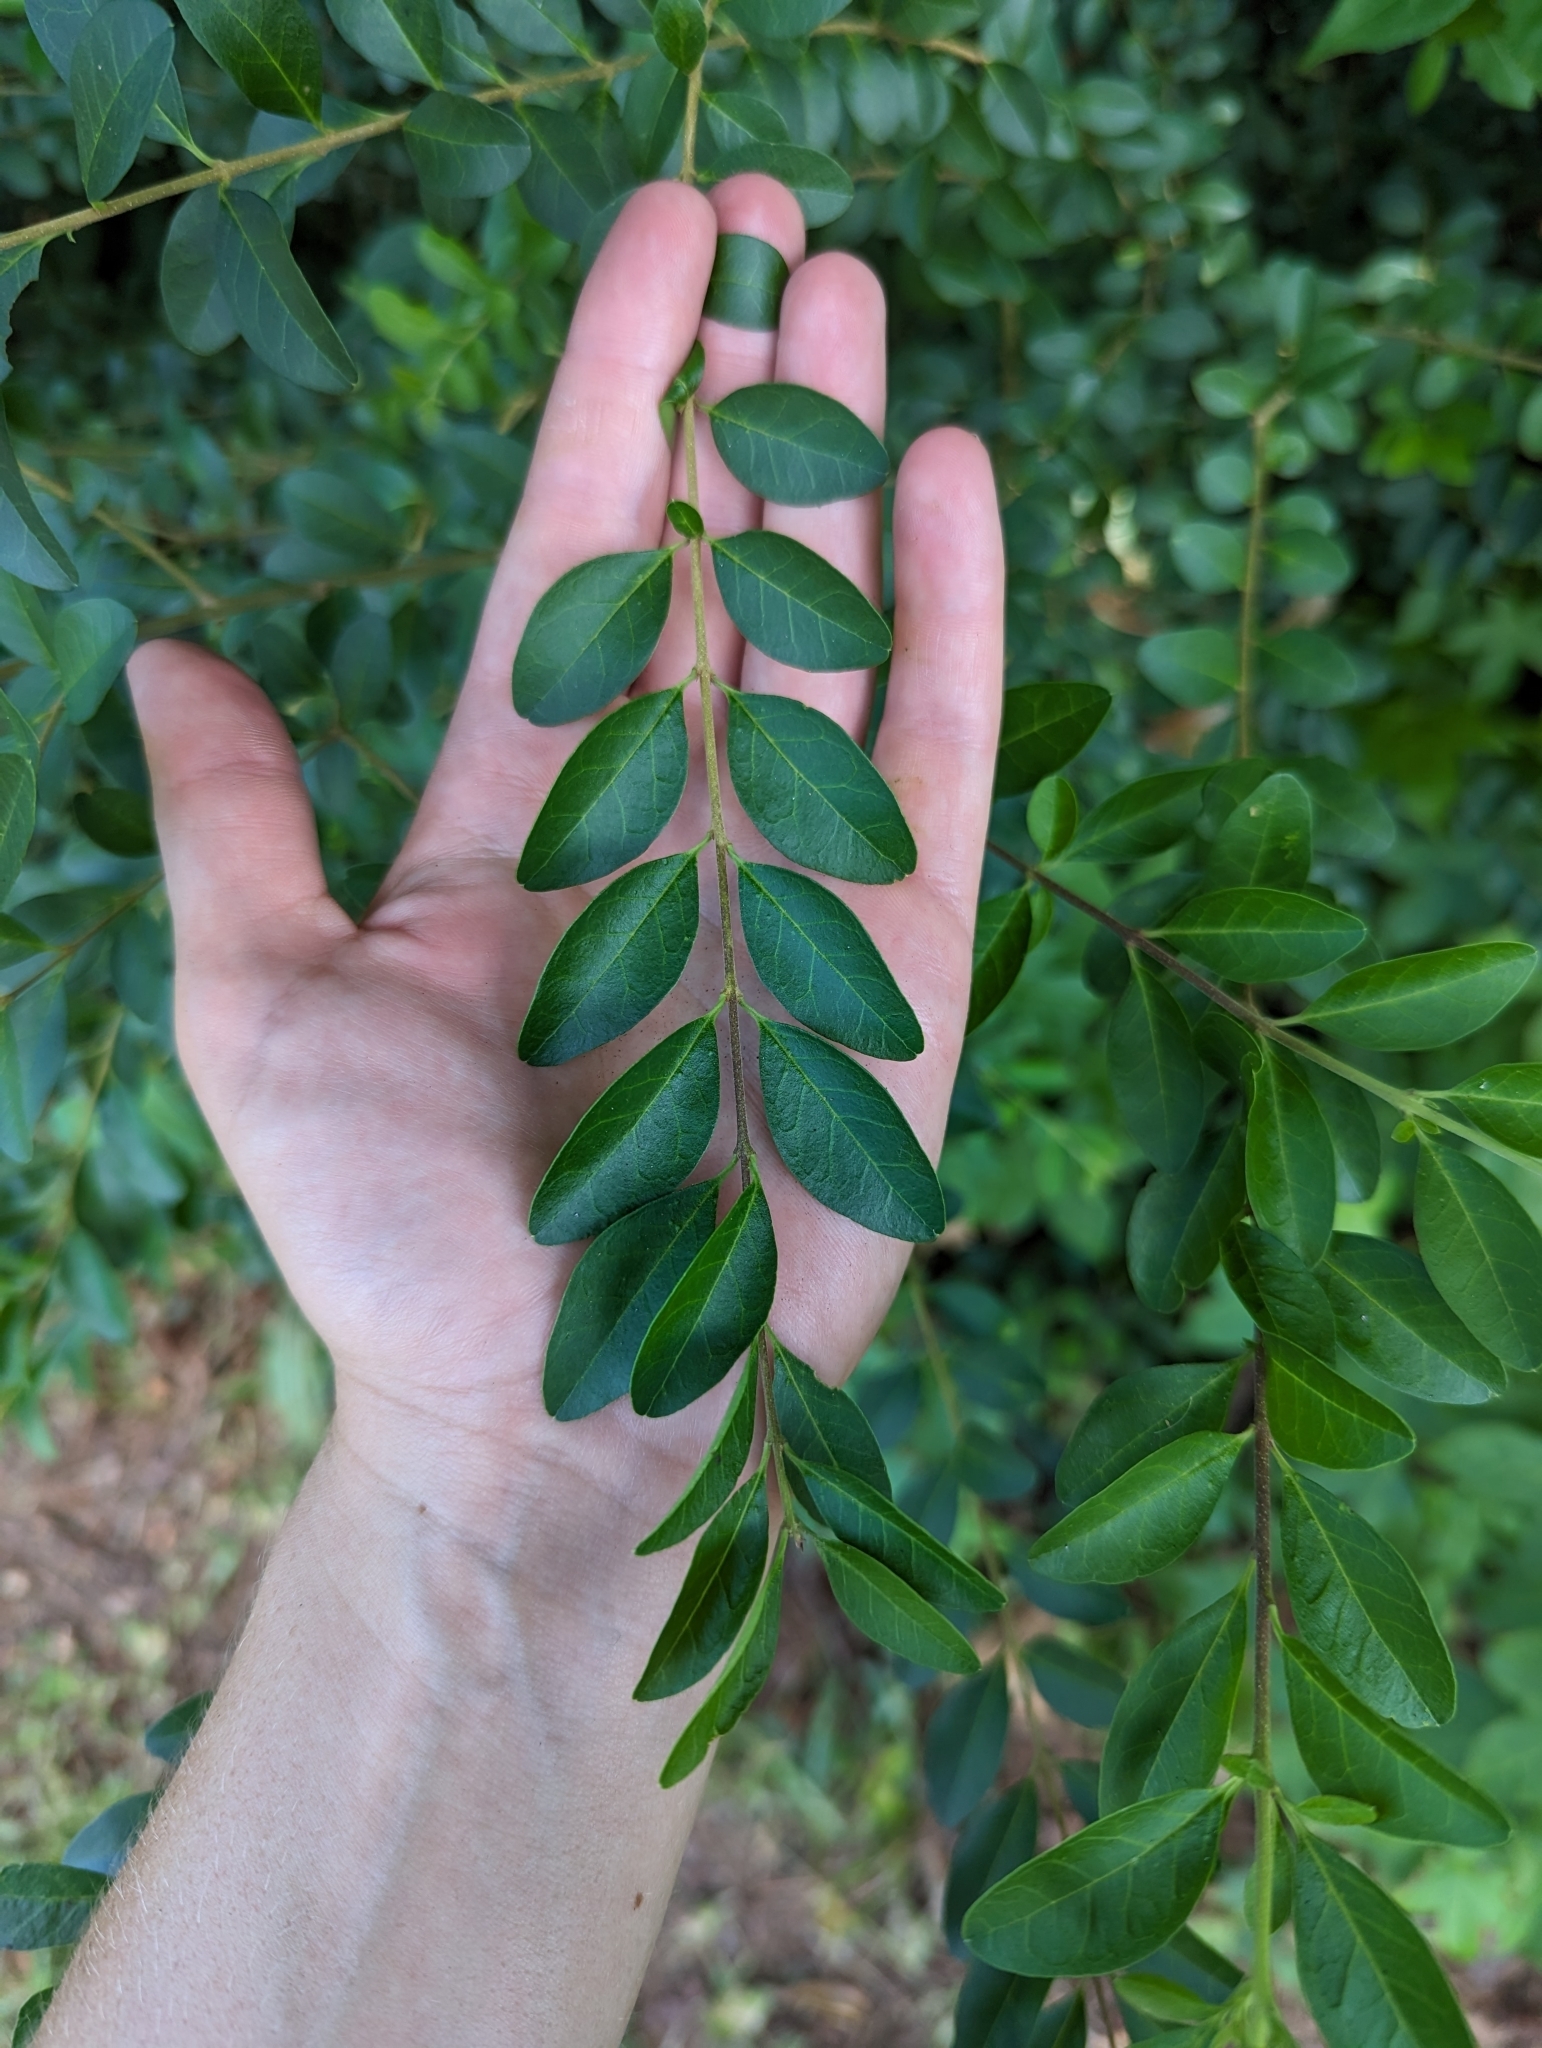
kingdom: Plantae
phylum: Tracheophyta
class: Magnoliopsida
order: Lamiales
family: Oleaceae
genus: Ligustrum
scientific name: Ligustrum sinense
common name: Chinese privet
